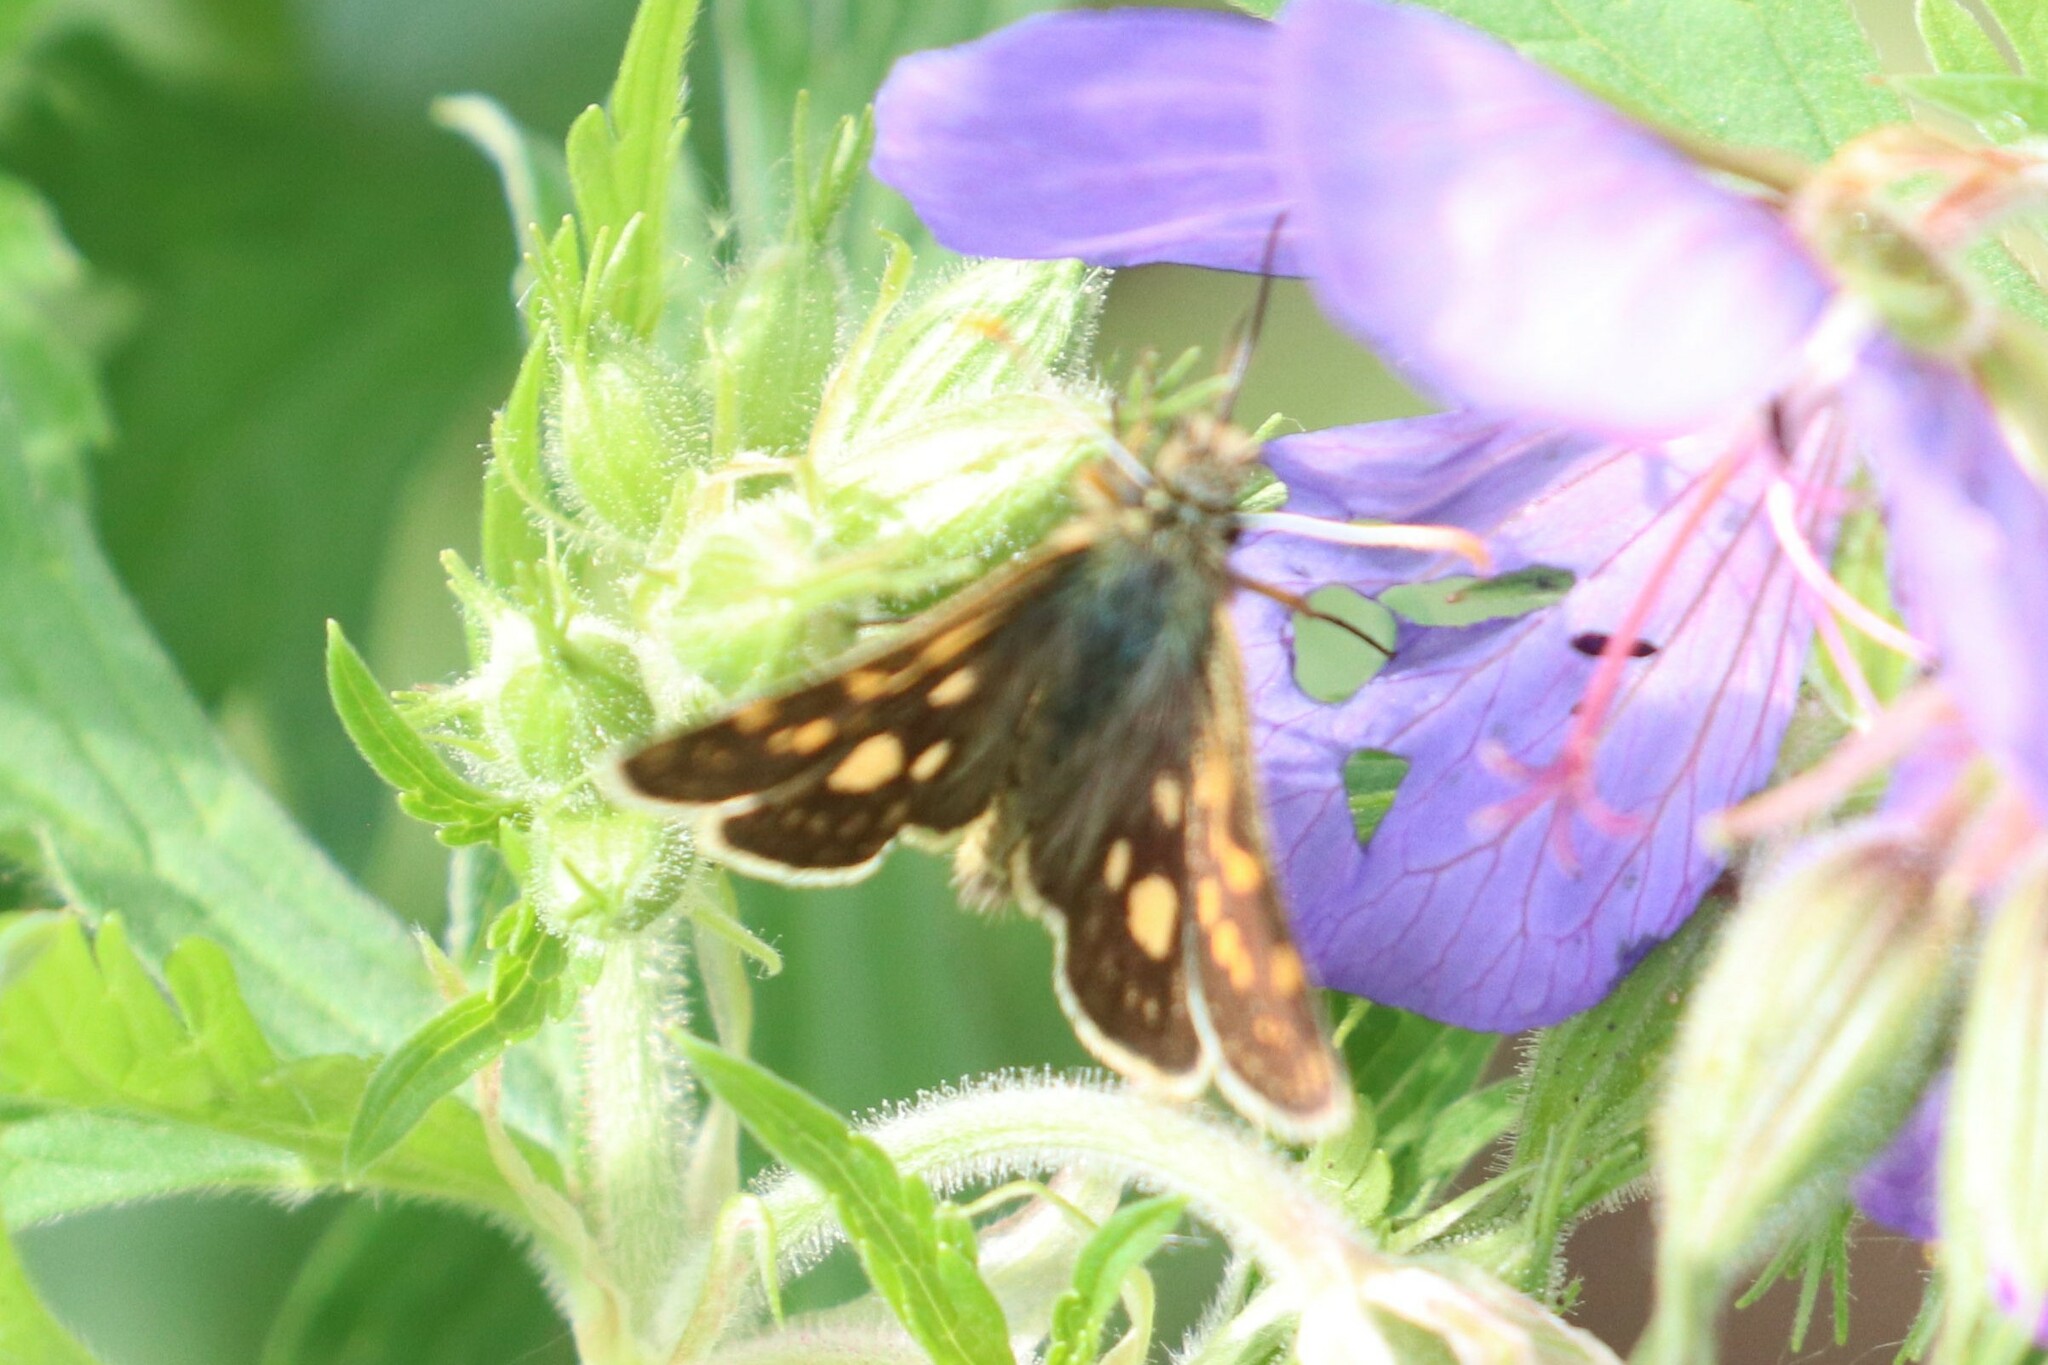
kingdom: Animalia
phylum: Arthropoda
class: Insecta
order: Lepidoptera
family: Hesperiidae
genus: Carterocephalus
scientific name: Carterocephalus palaemon
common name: Chequered skipper
